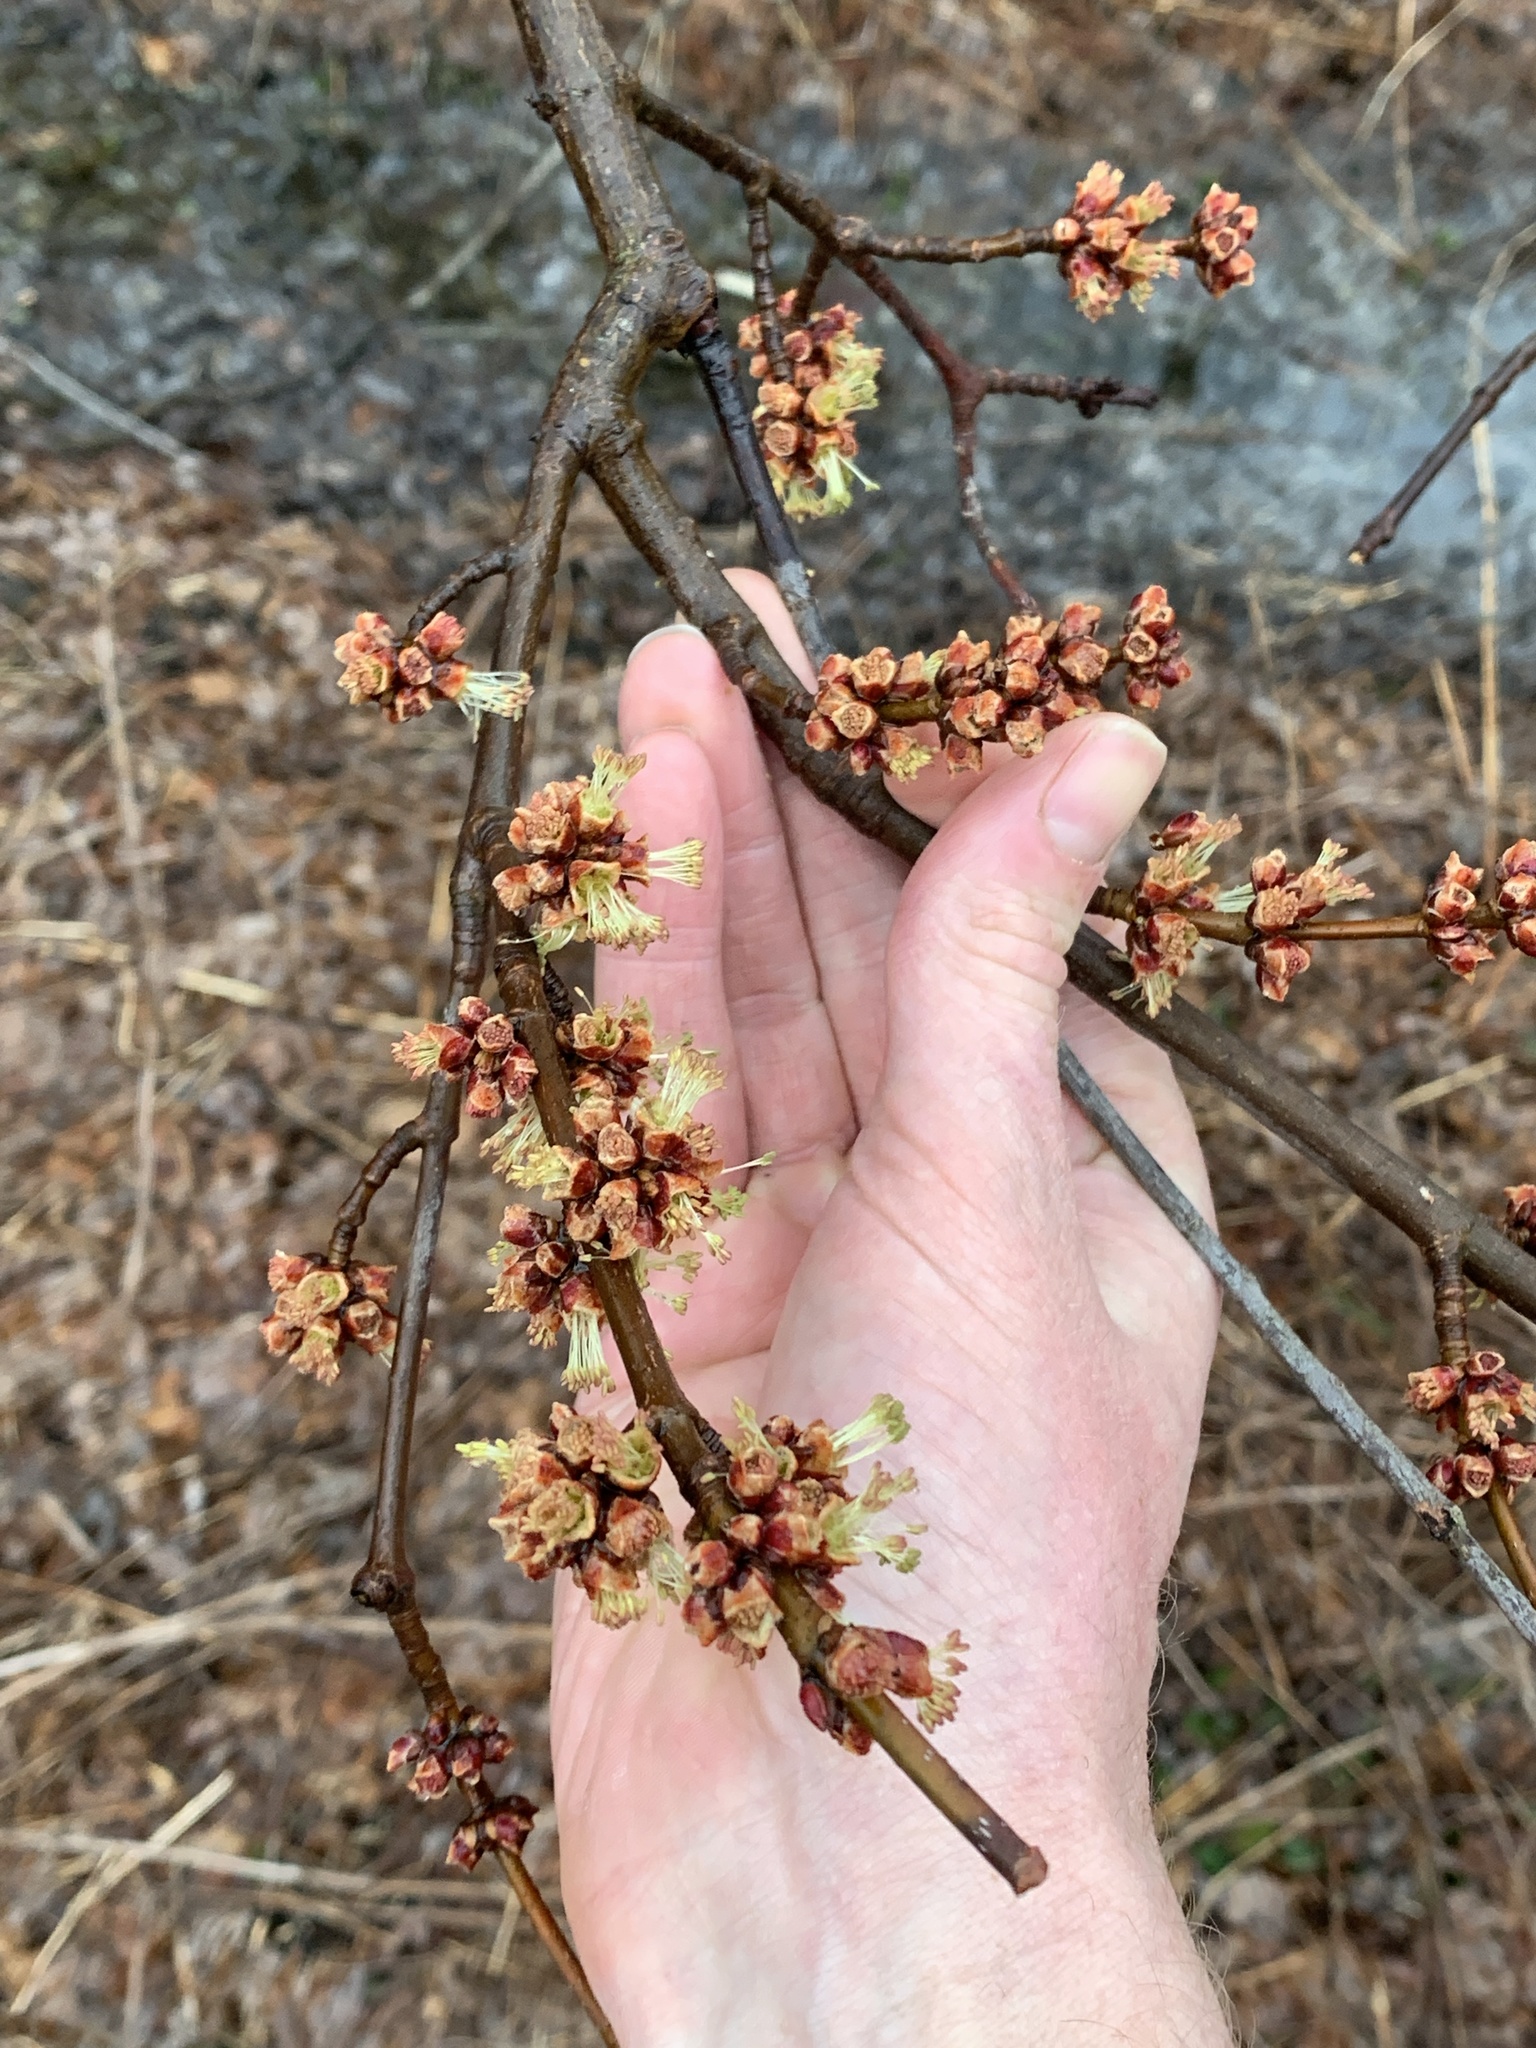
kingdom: Plantae
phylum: Tracheophyta
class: Magnoliopsida
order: Sapindales
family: Sapindaceae
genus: Acer
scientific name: Acer saccharinum
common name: Silver maple
